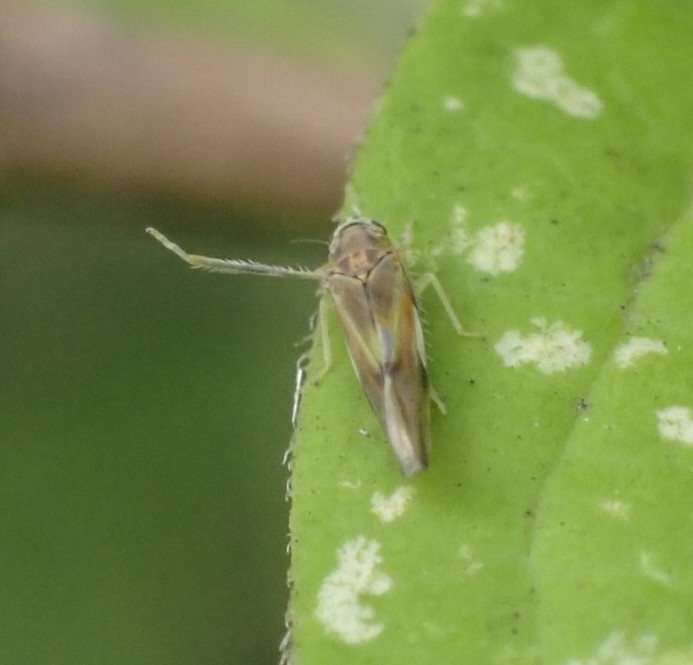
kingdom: Animalia
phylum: Arthropoda
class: Insecta
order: Hemiptera
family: Cicadellidae
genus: Vilbasteana
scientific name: Vilbasteana oculata
